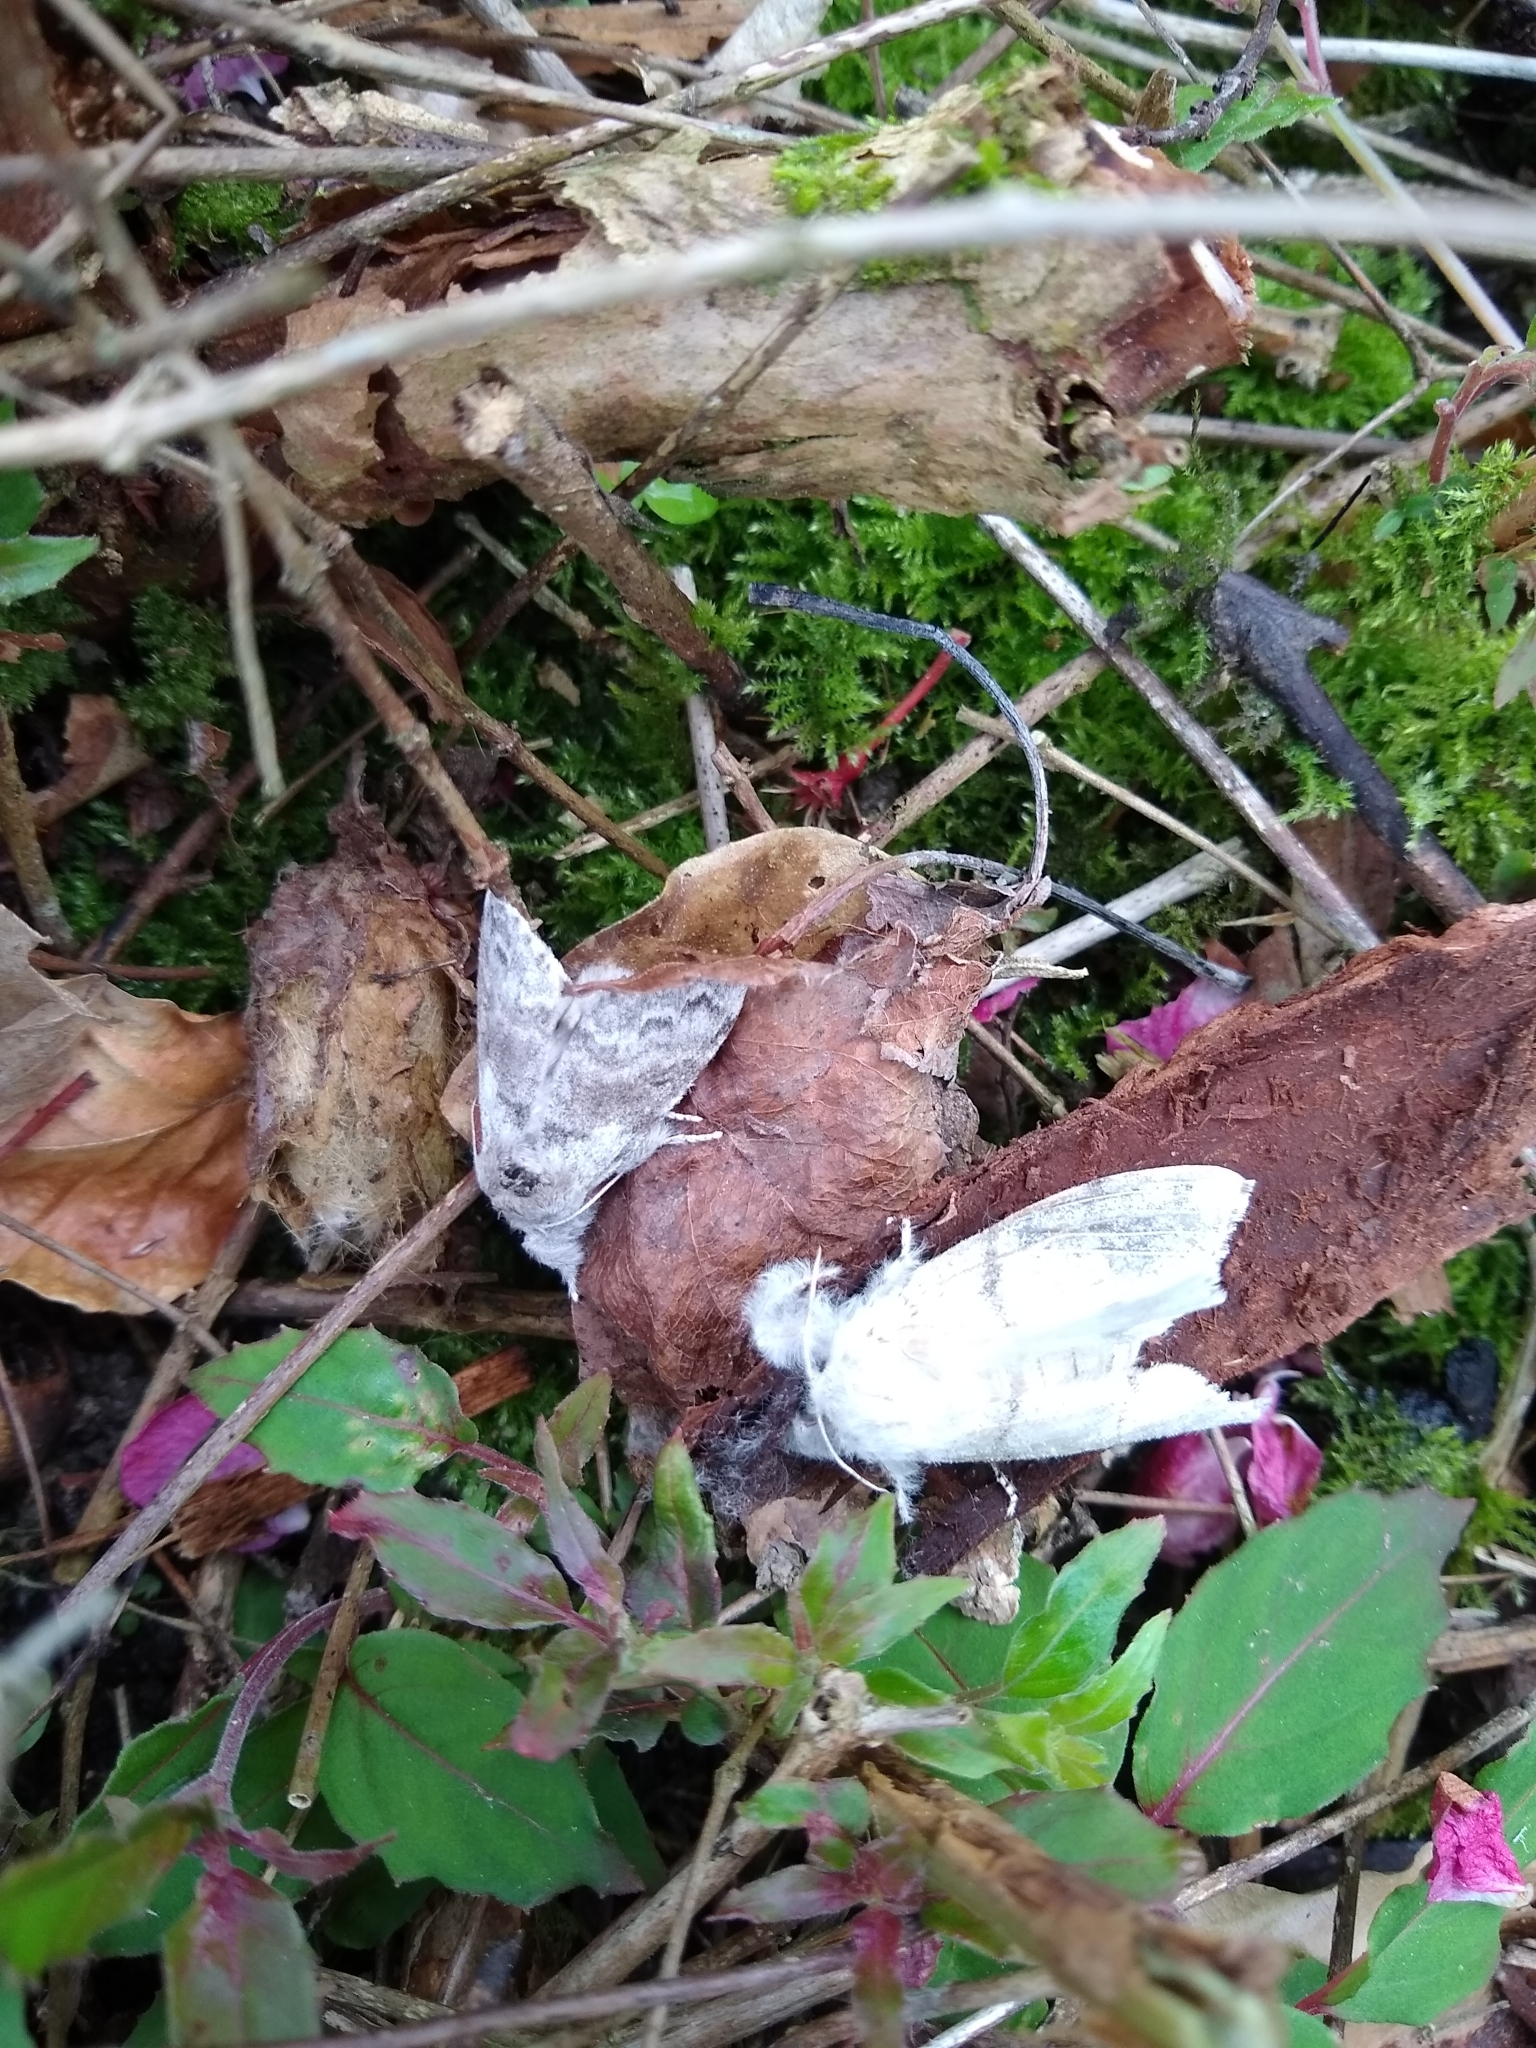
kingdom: Animalia
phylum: Arthropoda
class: Insecta
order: Lepidoptera
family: Erebidae
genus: Calliteara
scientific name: Calliteara pudibunda
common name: Pale tussock
